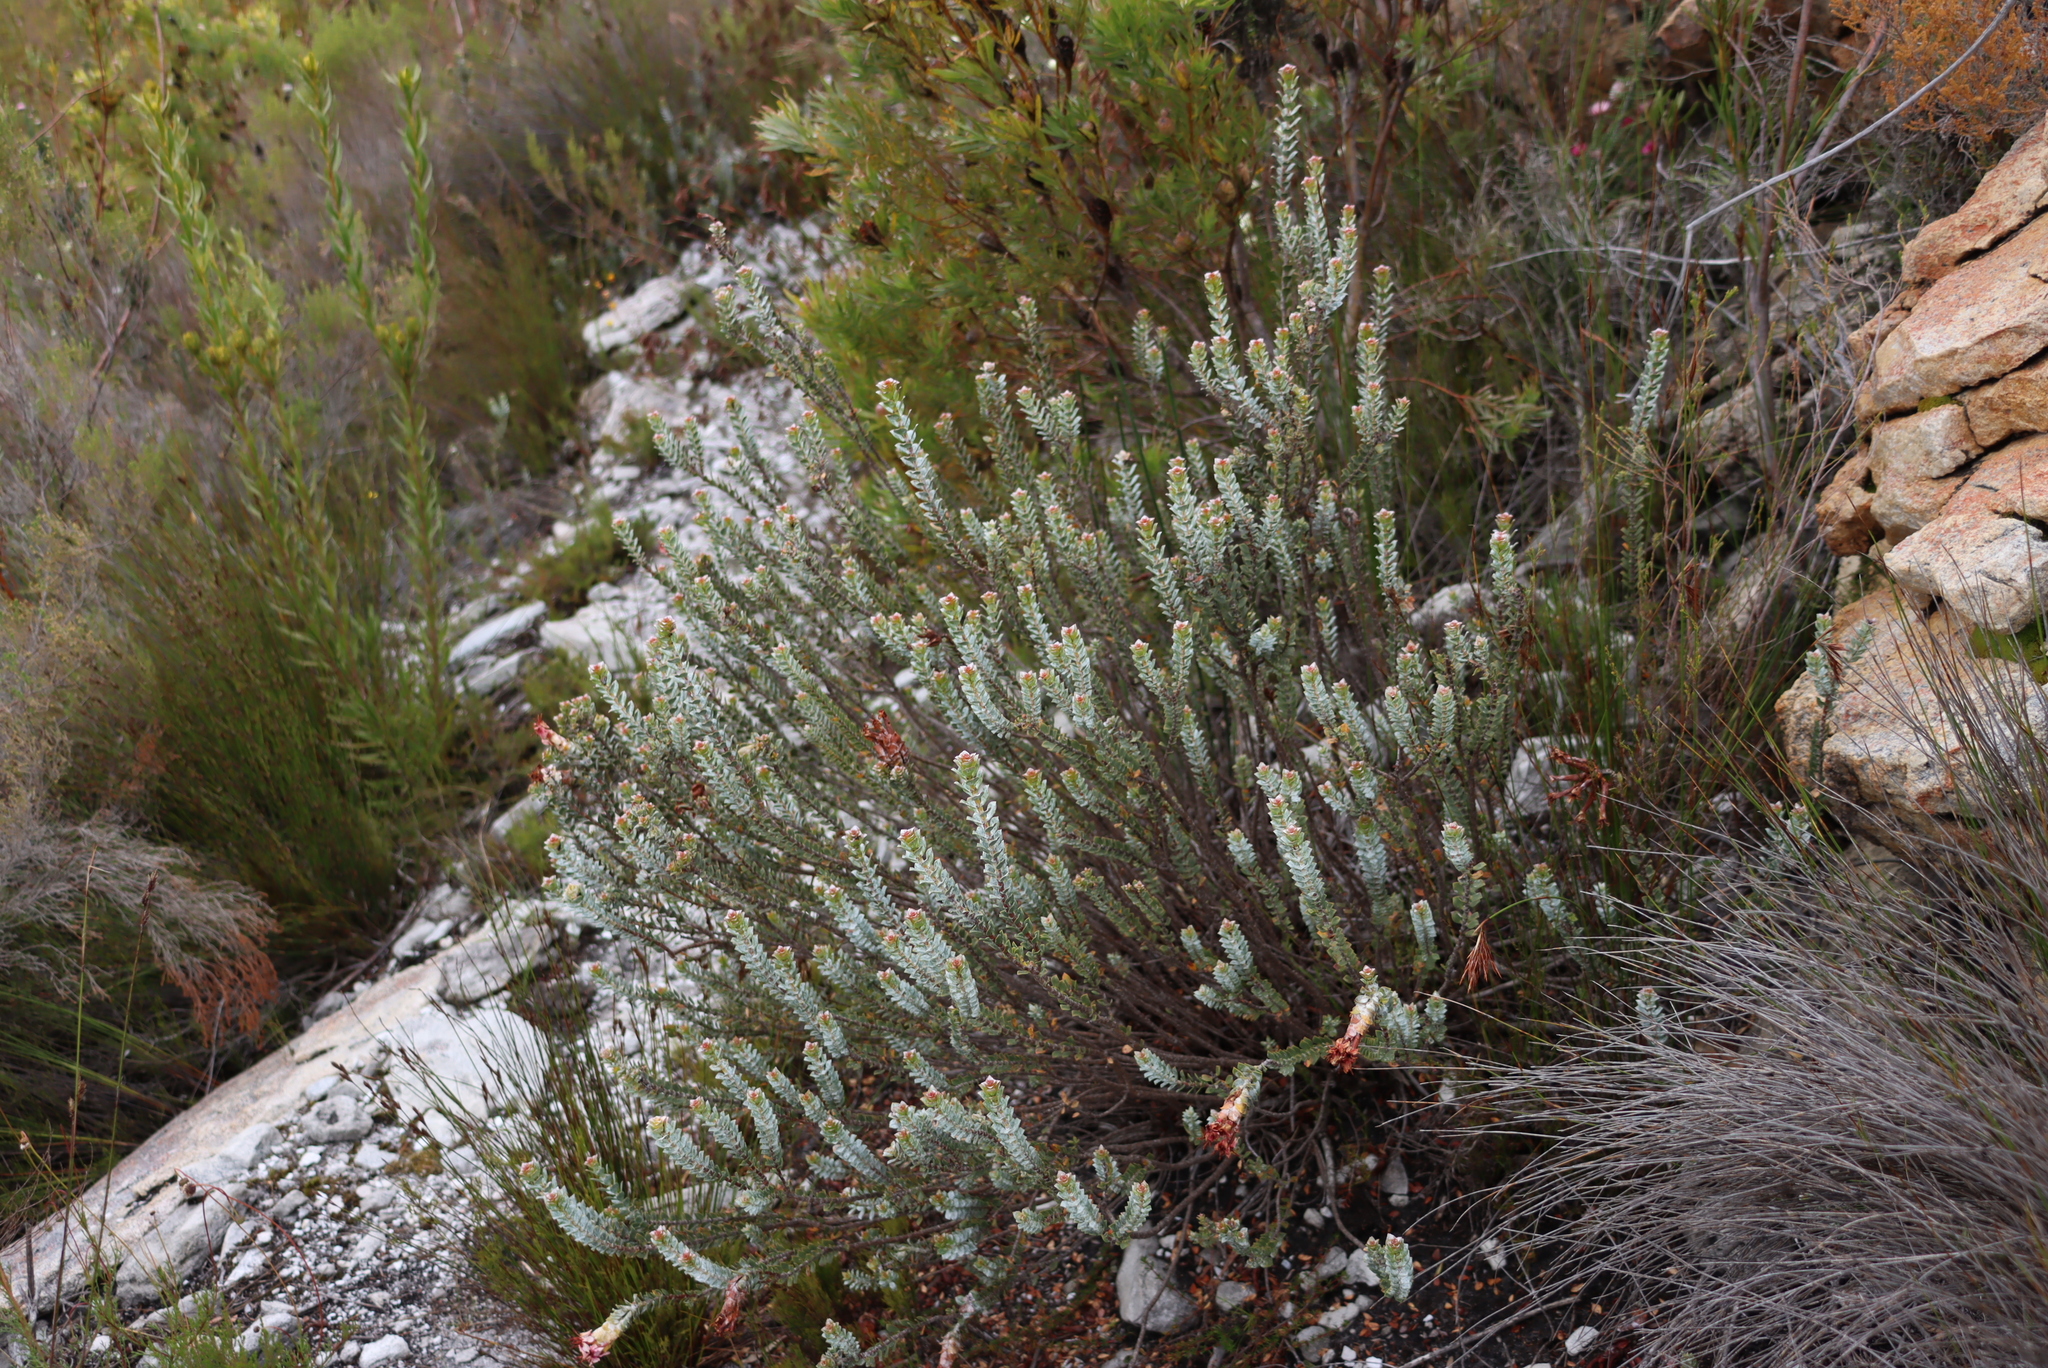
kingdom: Plantae
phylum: Tracheophyta
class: Magnoliopsida
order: Myrtales
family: Penaeaceae
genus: Saltera
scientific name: Saltera sarcocolla
